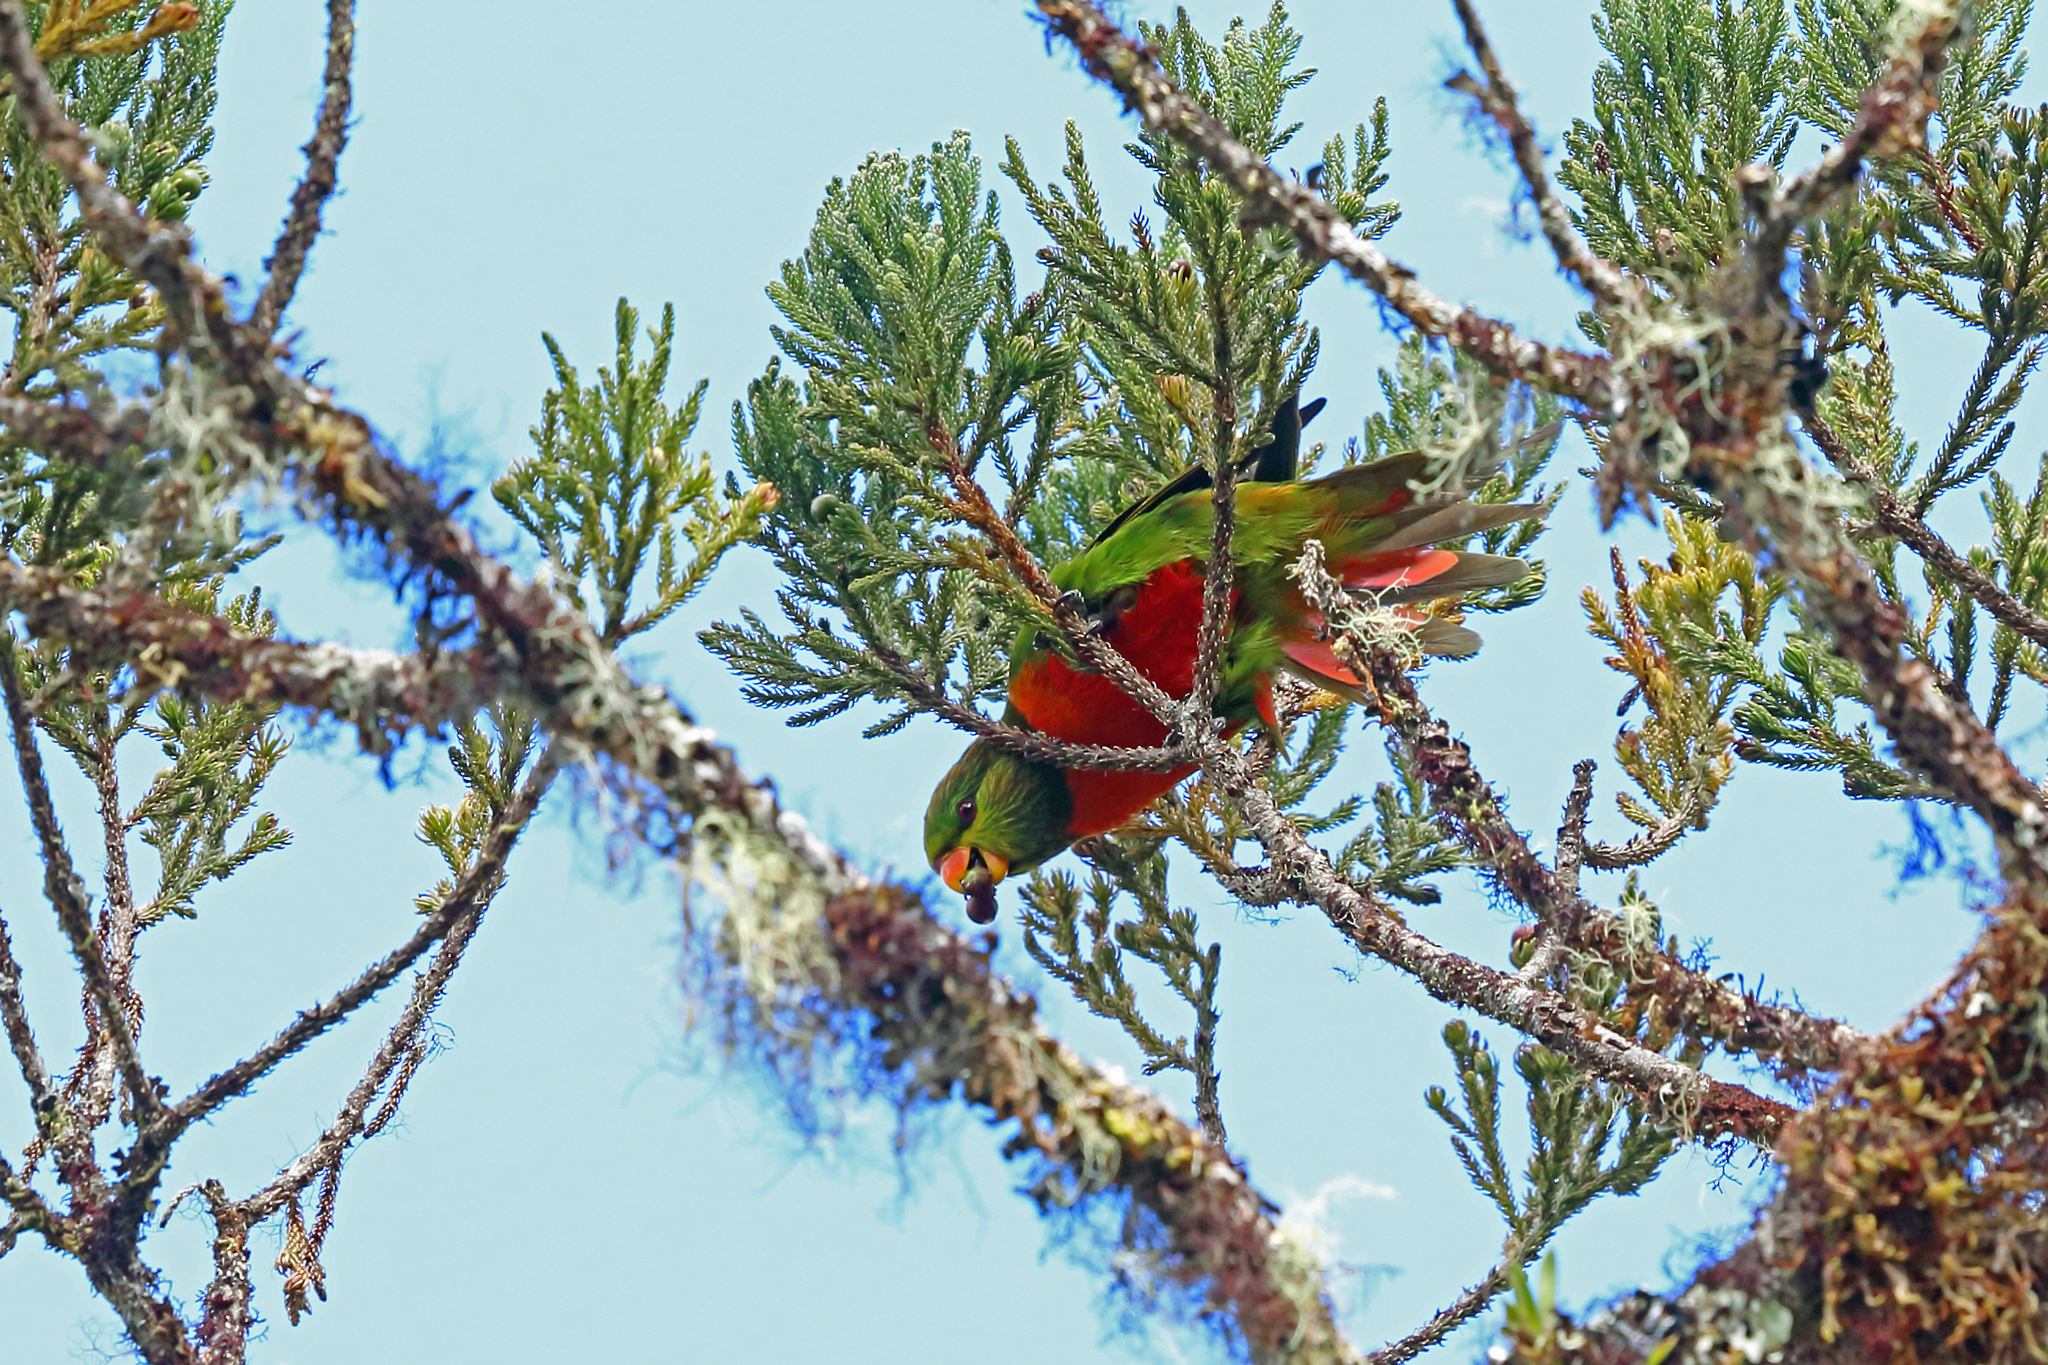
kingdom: Animalia
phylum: Chordata
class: Aves
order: Psittaciformes
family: Psittacidae
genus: Neopsittacus
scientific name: Neopsittacus pullicauda
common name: Orange-billed lorikeet
